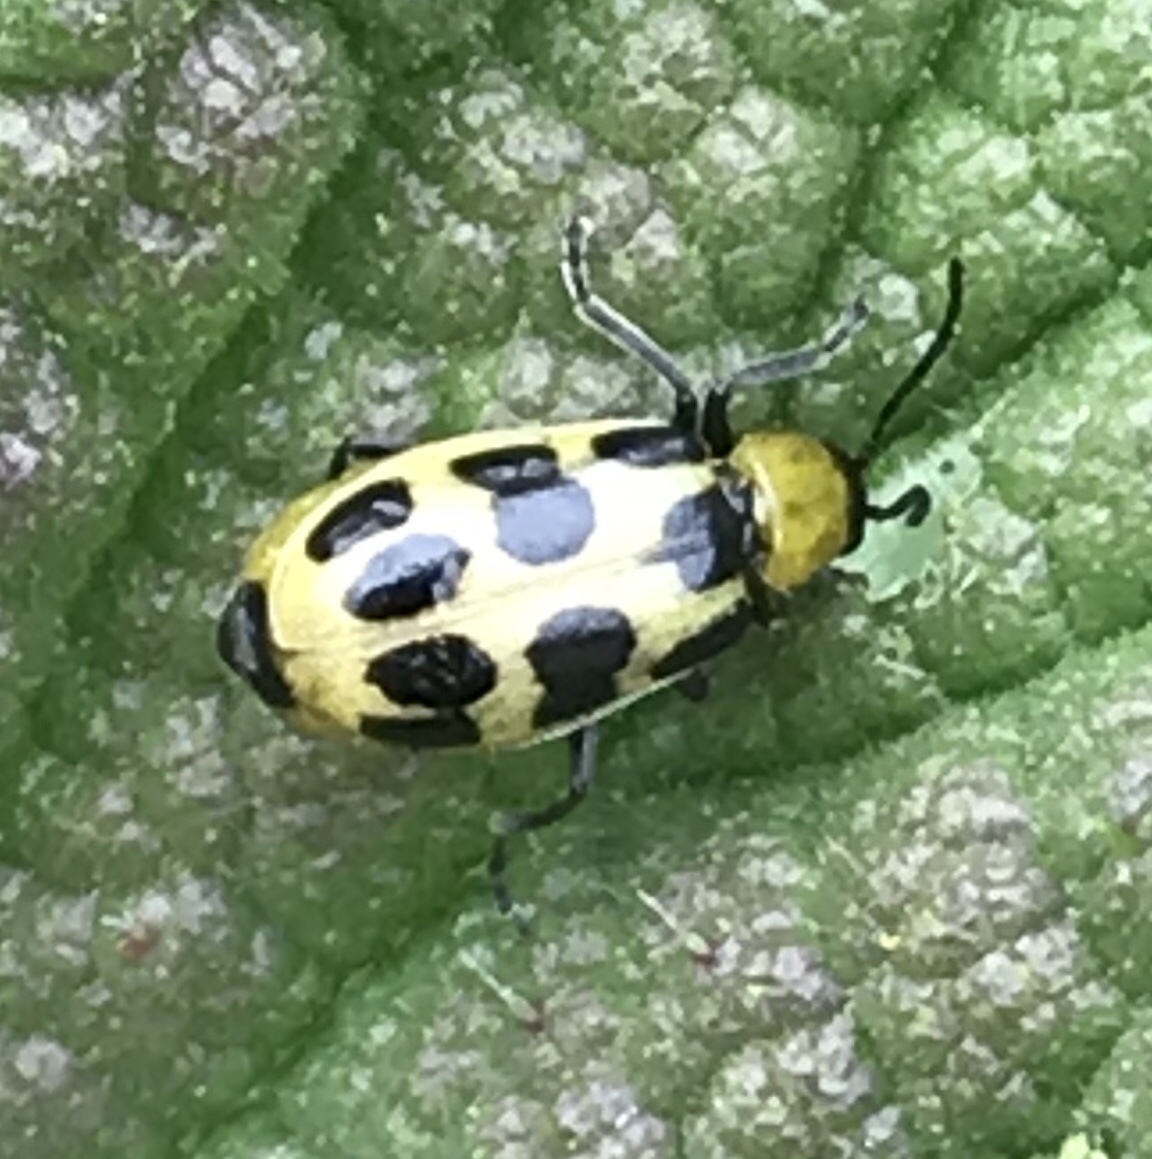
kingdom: Animalia
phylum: Arthropoda
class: Insecta
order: Coleoptera
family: Chrysomelidae
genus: Diabrotica
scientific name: Diabrotica undecimpunctata
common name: Spotted cucumber beetle
